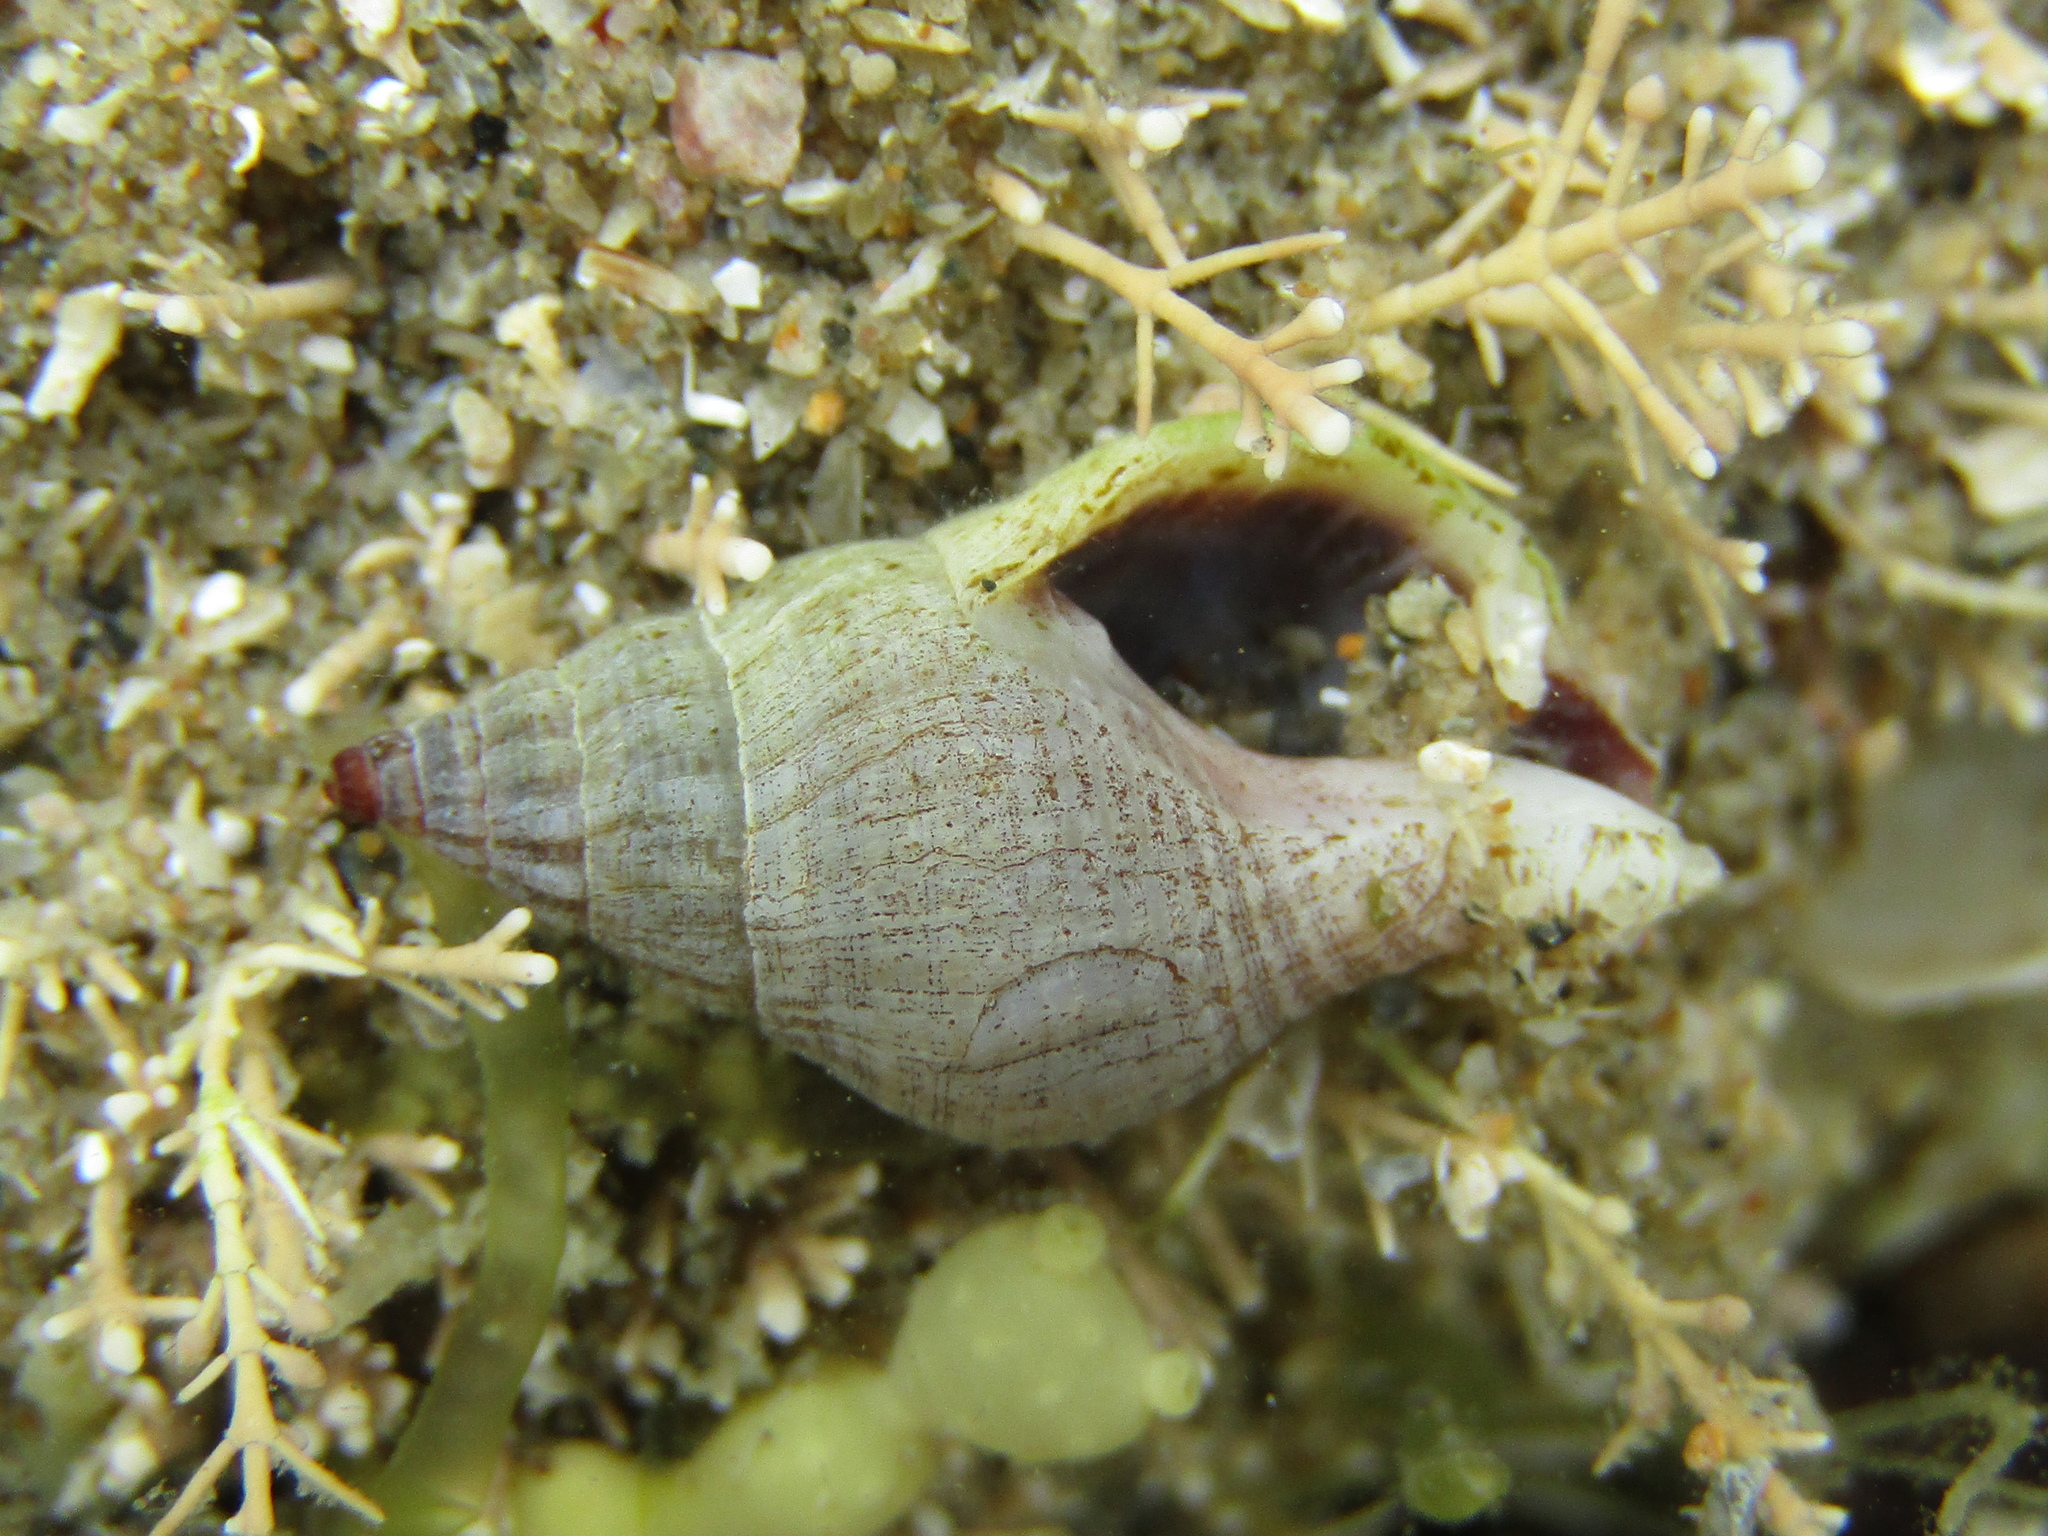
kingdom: Animalia
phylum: Mollusca
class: Gastropoda
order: Neogastropoda
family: Tudiclidae
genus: Buccinulum
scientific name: Buccinulum vittatum
